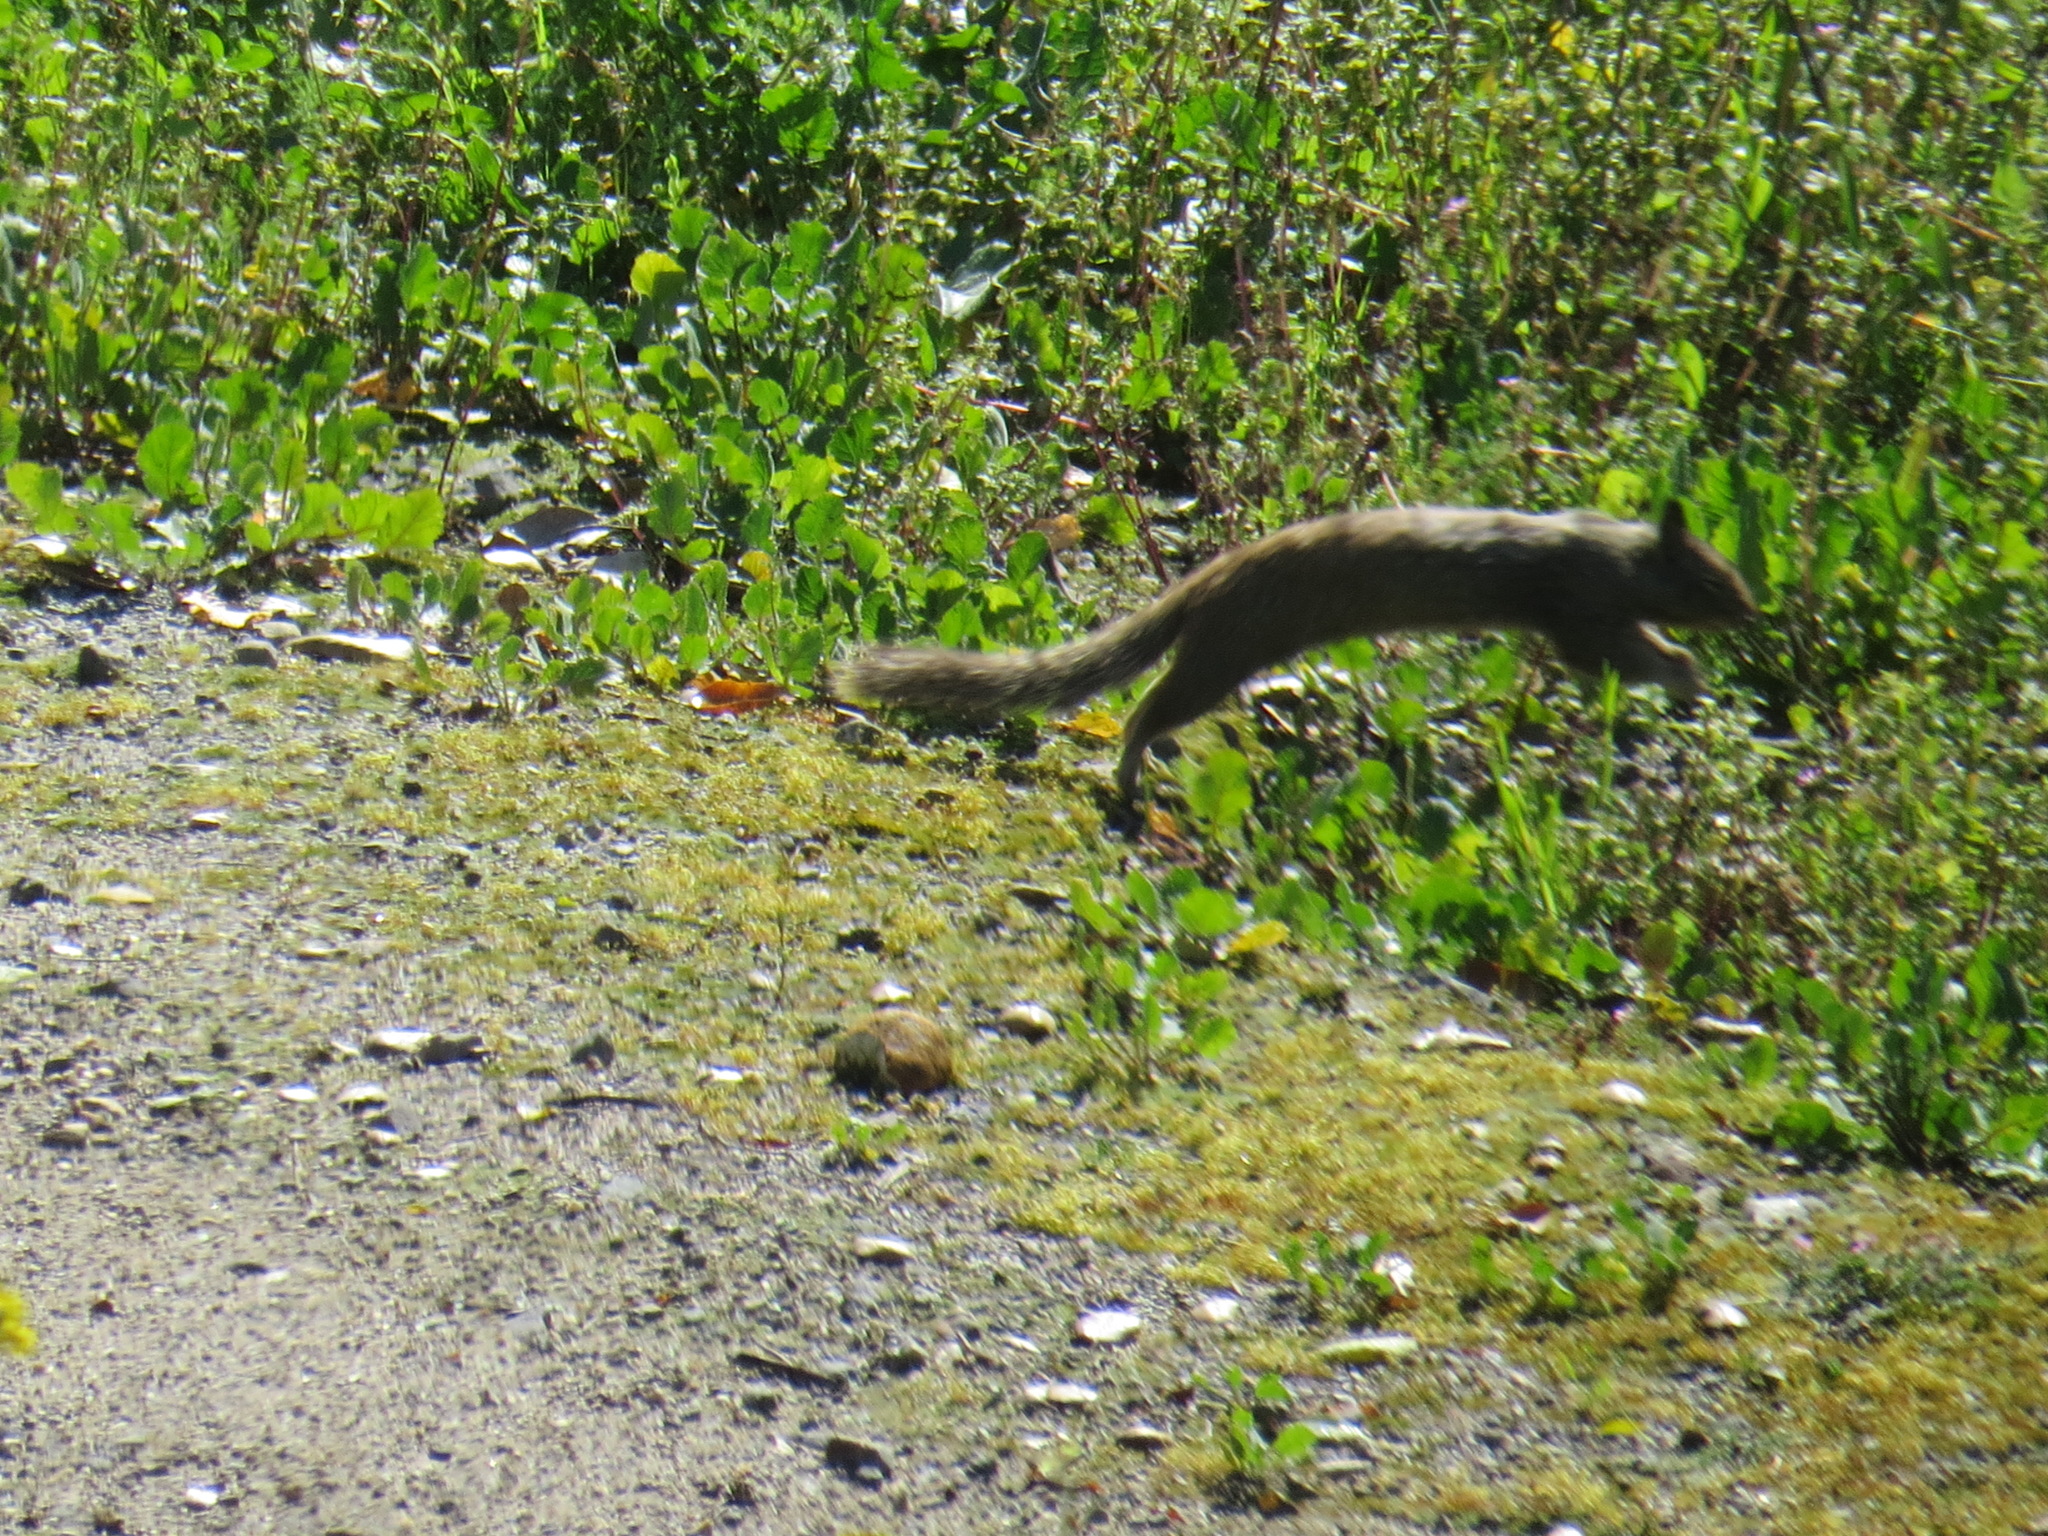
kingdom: Animalia
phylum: Chordata
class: Mammalia
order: Rodentia
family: Sciuridae
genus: Otospermophilus
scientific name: Otospermophilus beecheyi
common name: California ground squirrel
